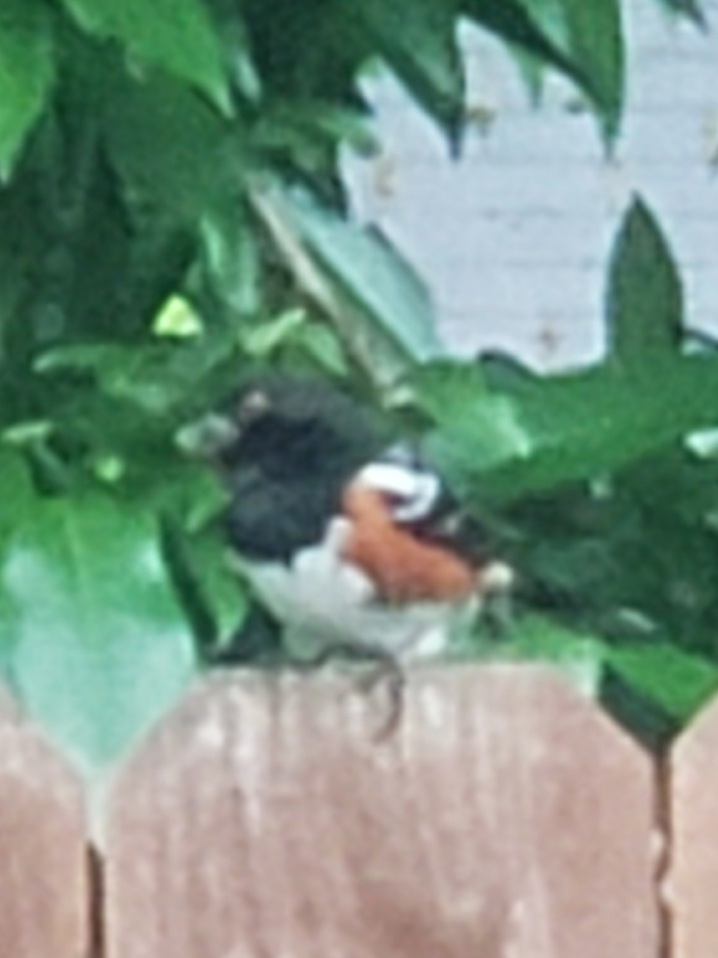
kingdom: Animalia
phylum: Chordata
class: Aves
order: Passeriformes
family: Passerellidae
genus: Pipilo
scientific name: Pipilo maculatus
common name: Spotted towhee
